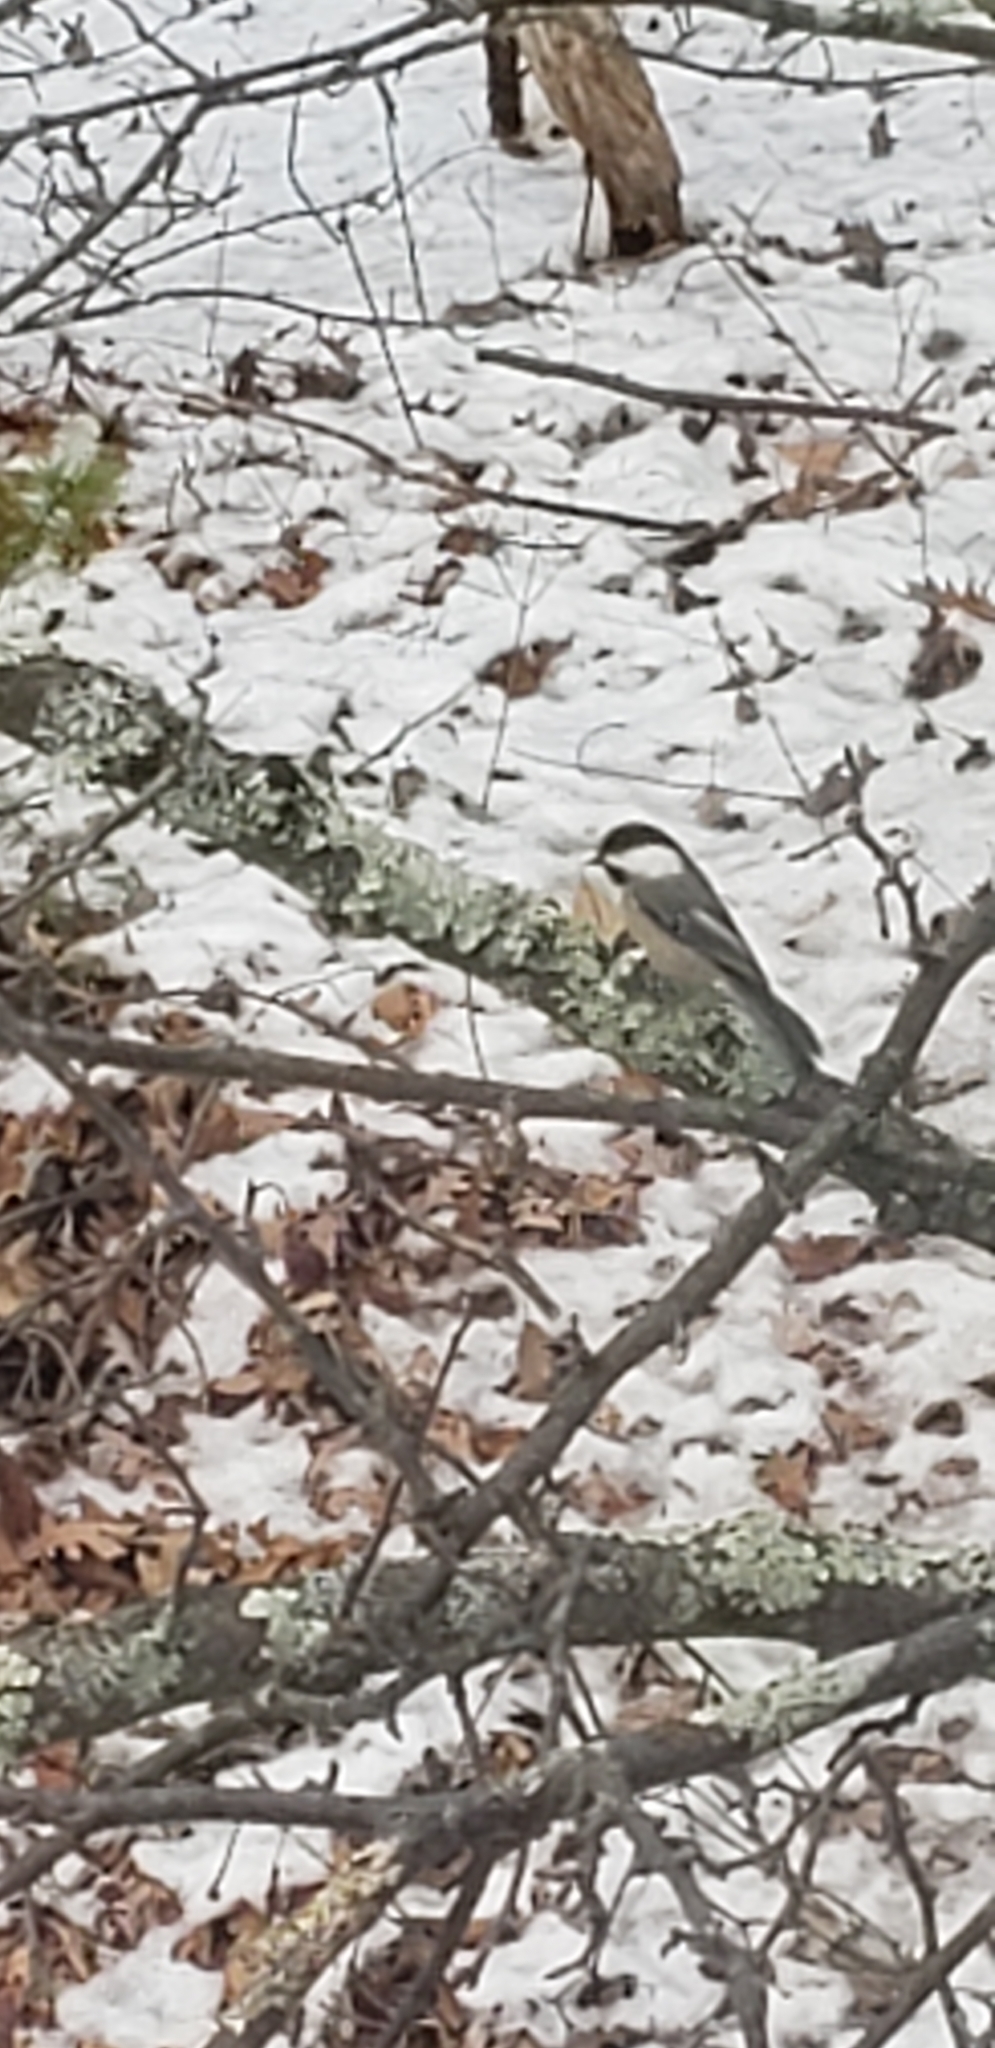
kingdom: Animalia
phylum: Chordata
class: Aves
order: Passeriformes
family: Paridae
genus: Poecile
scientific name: Poecile atricapillus
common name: Black-capped chickadee
